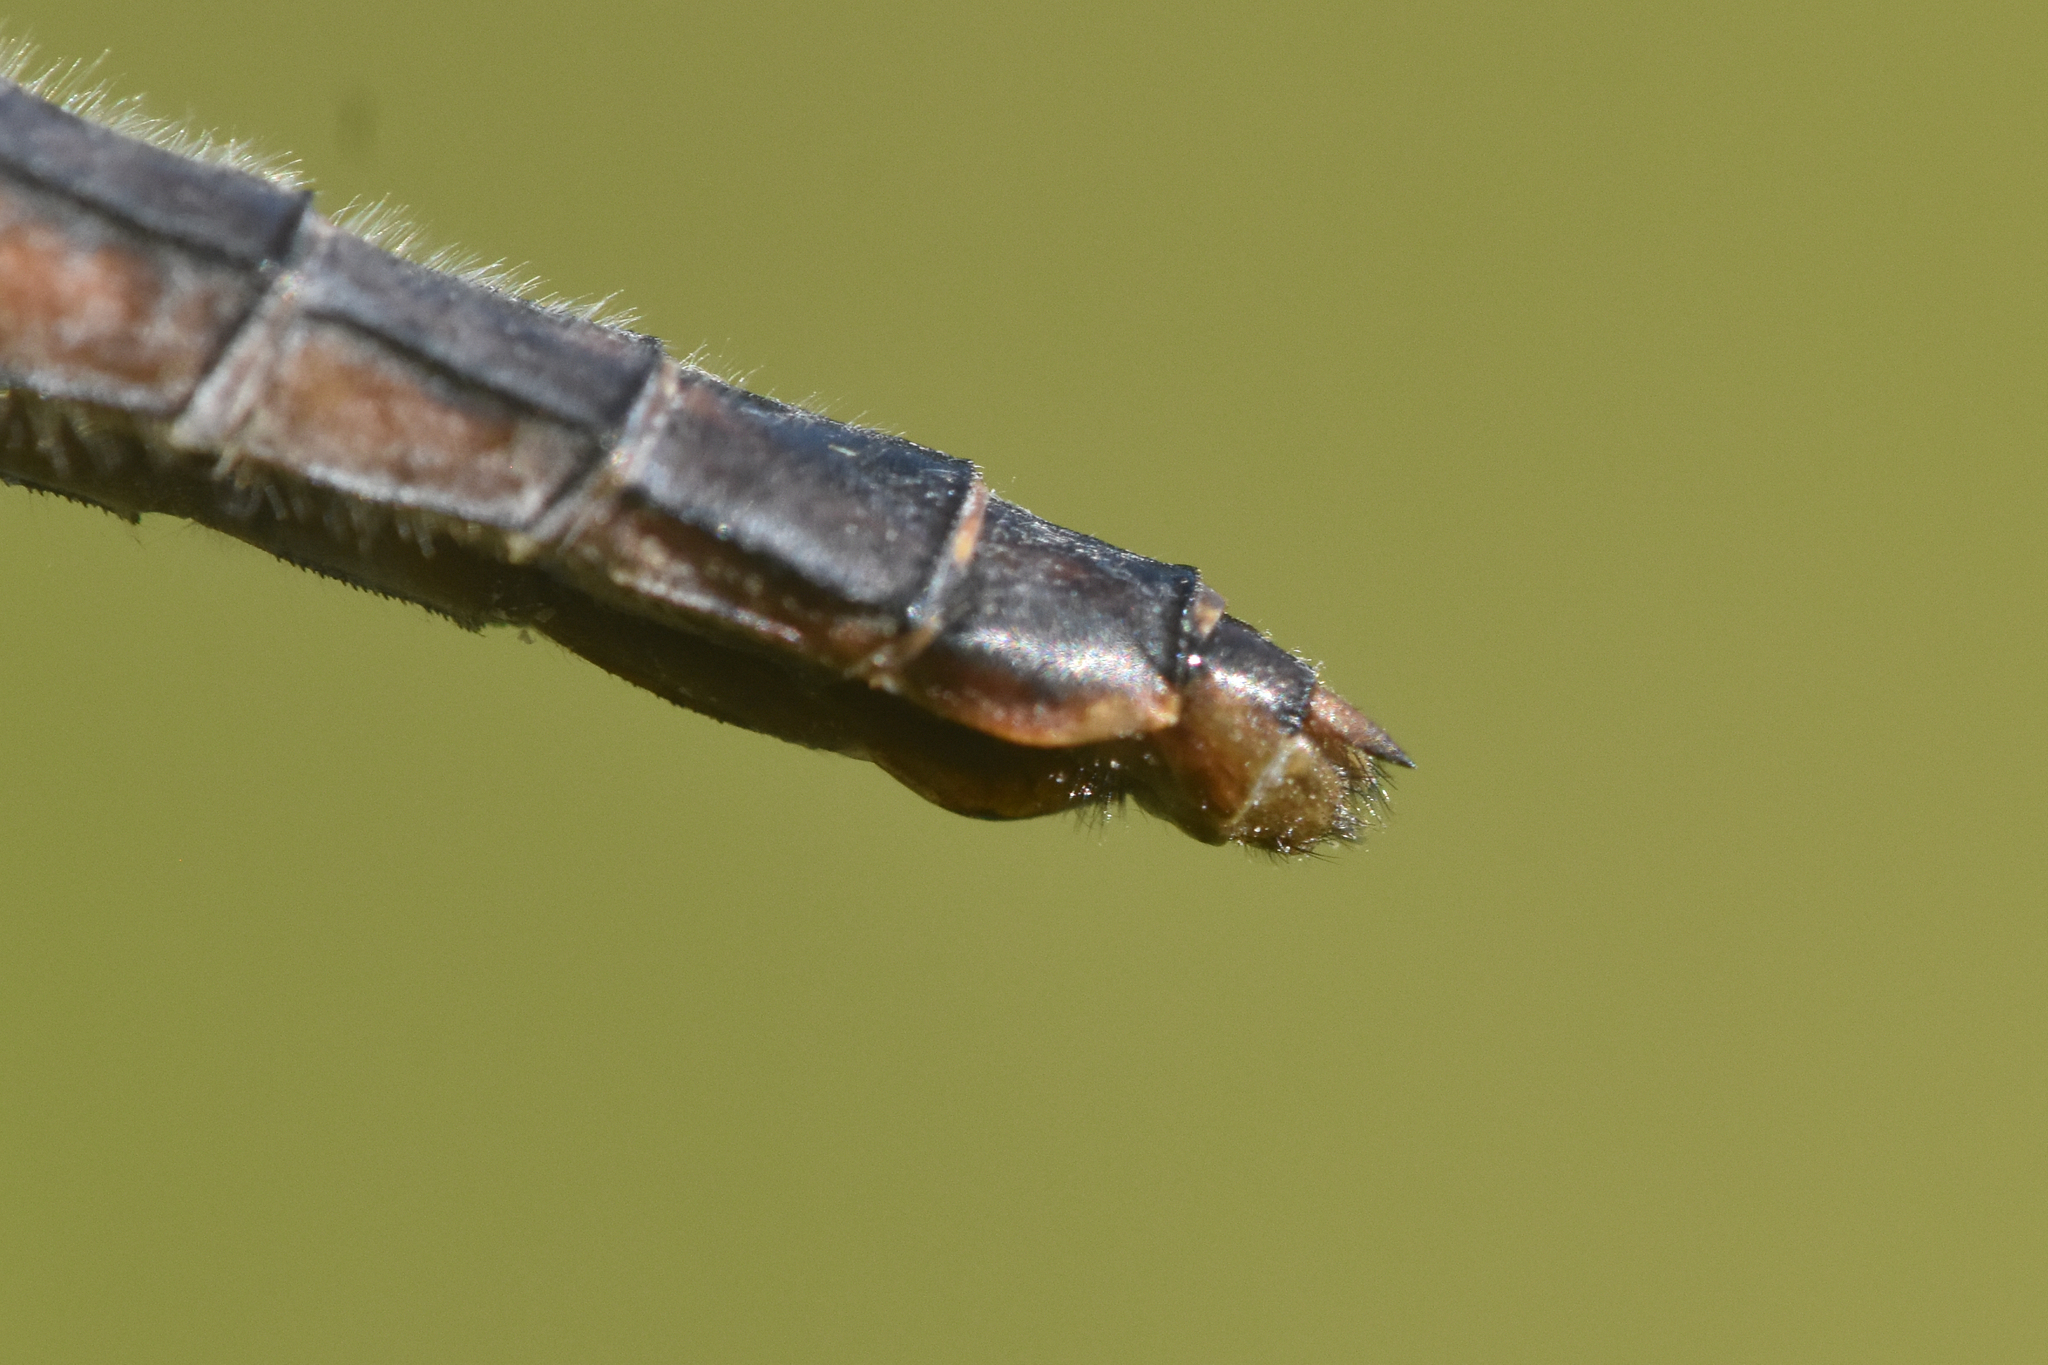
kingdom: Animalia
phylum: Arthropoda
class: Insecta
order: Odonata
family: Libellulidae
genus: Ladona
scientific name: Ladona julia
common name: Chalk-fronted corporal
